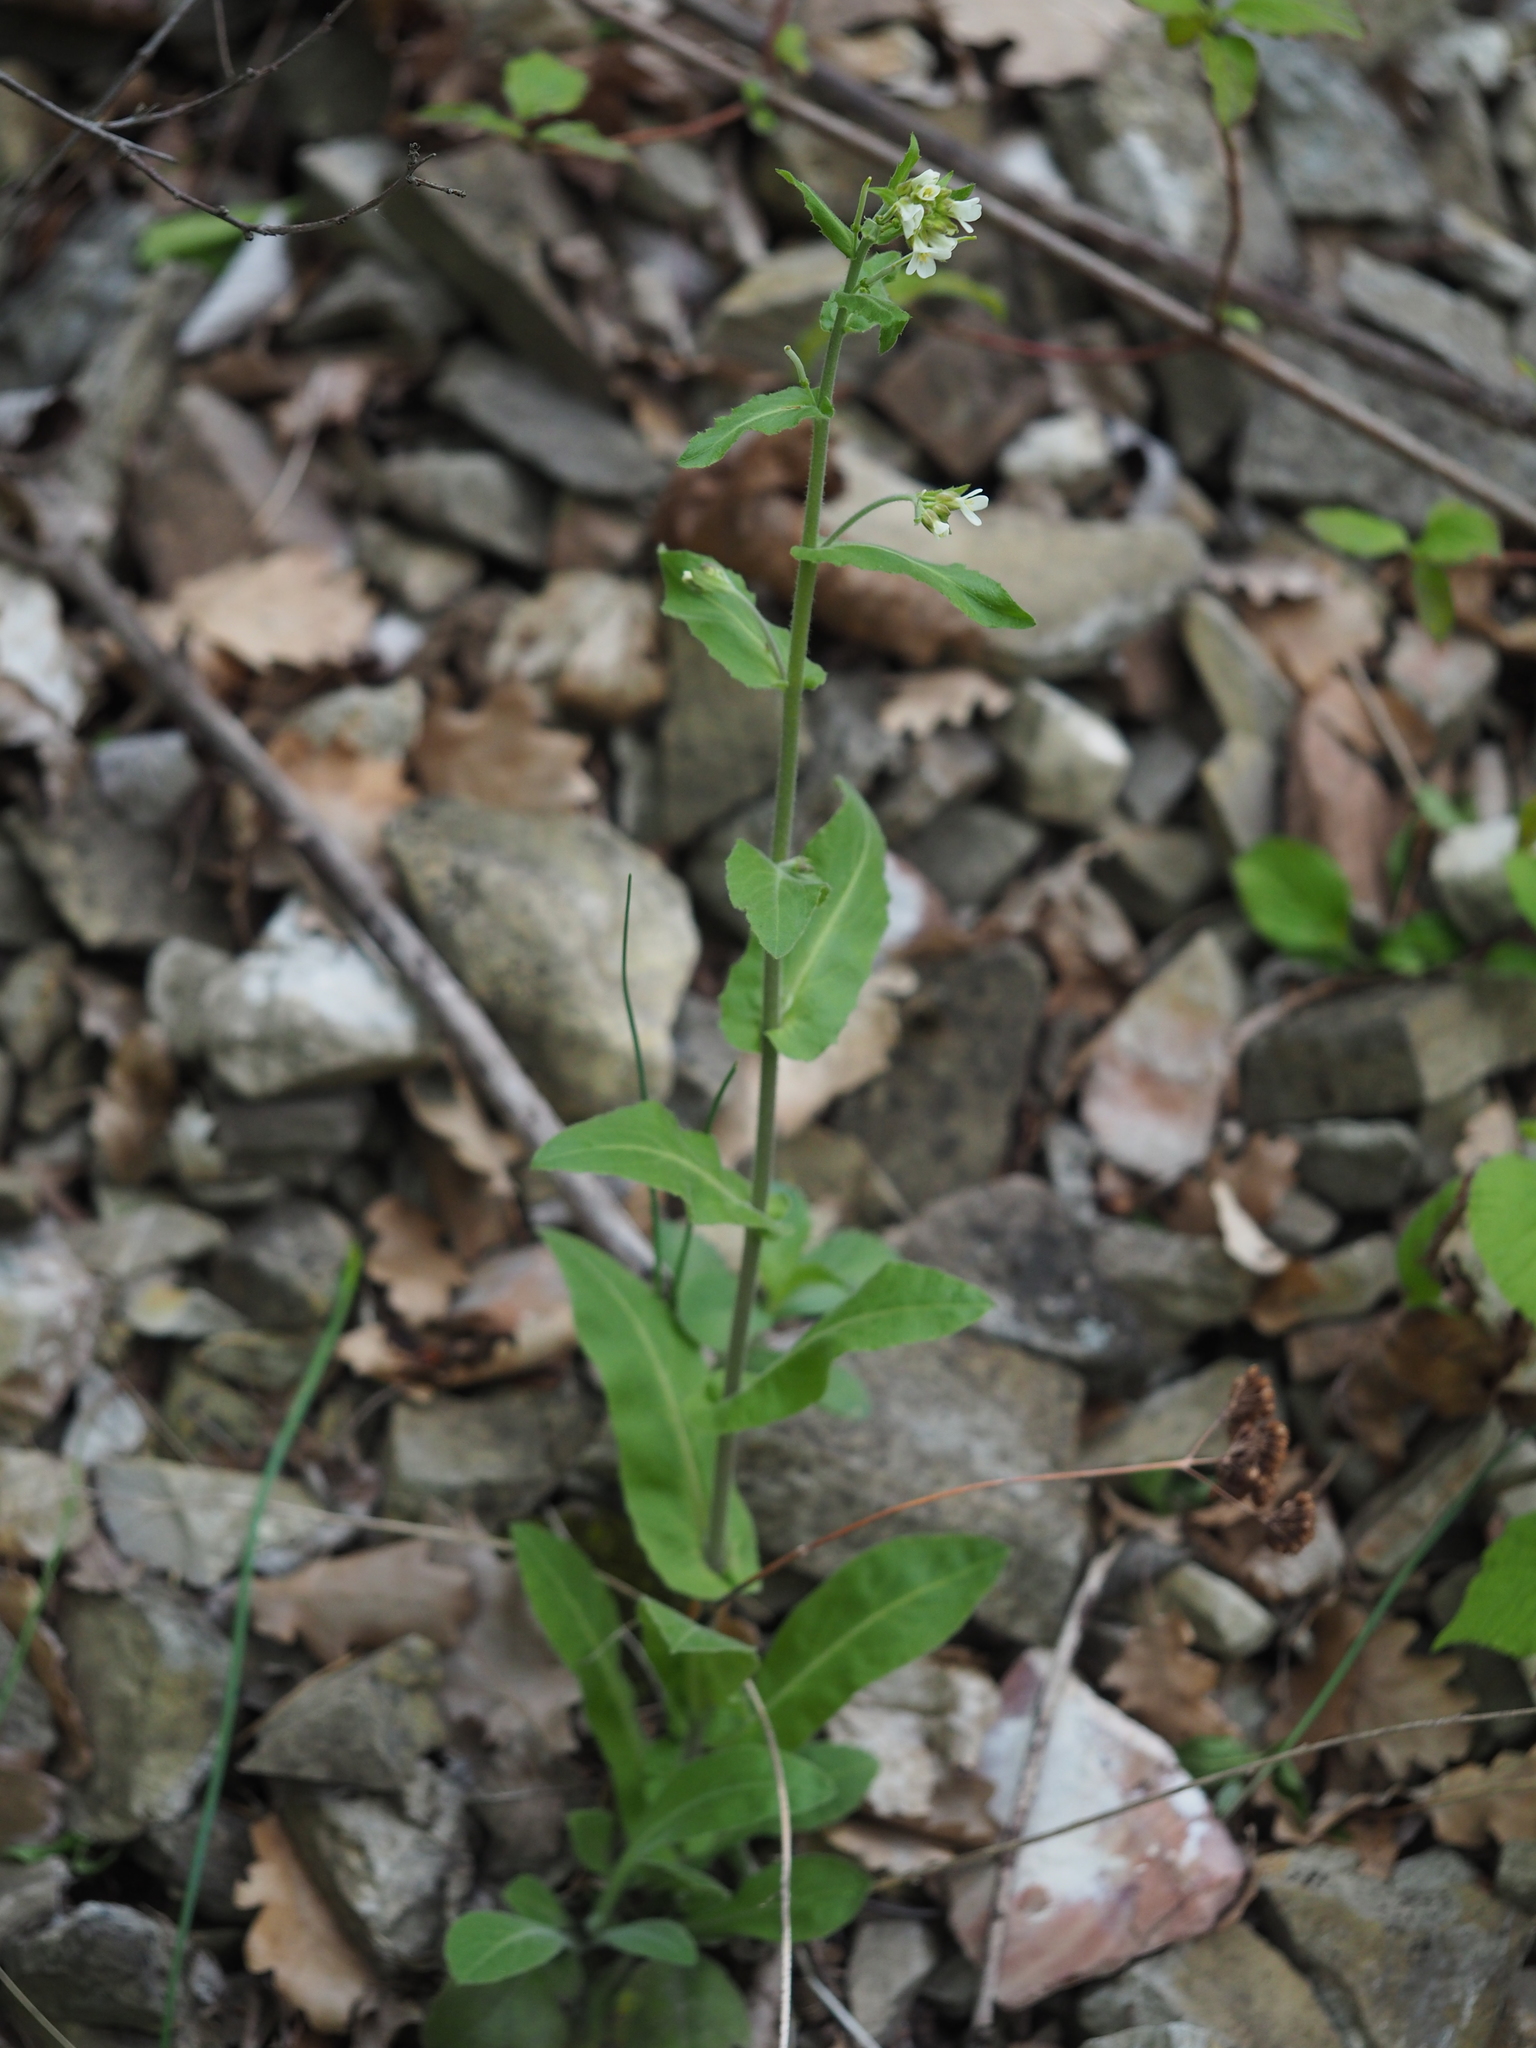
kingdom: Plantae
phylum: Tracheophyta
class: Magnoliopsida
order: Brassicales
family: Brassicaceae
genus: Pseudoturritis
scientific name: Pseudoturritis turrita
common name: Tower cress
